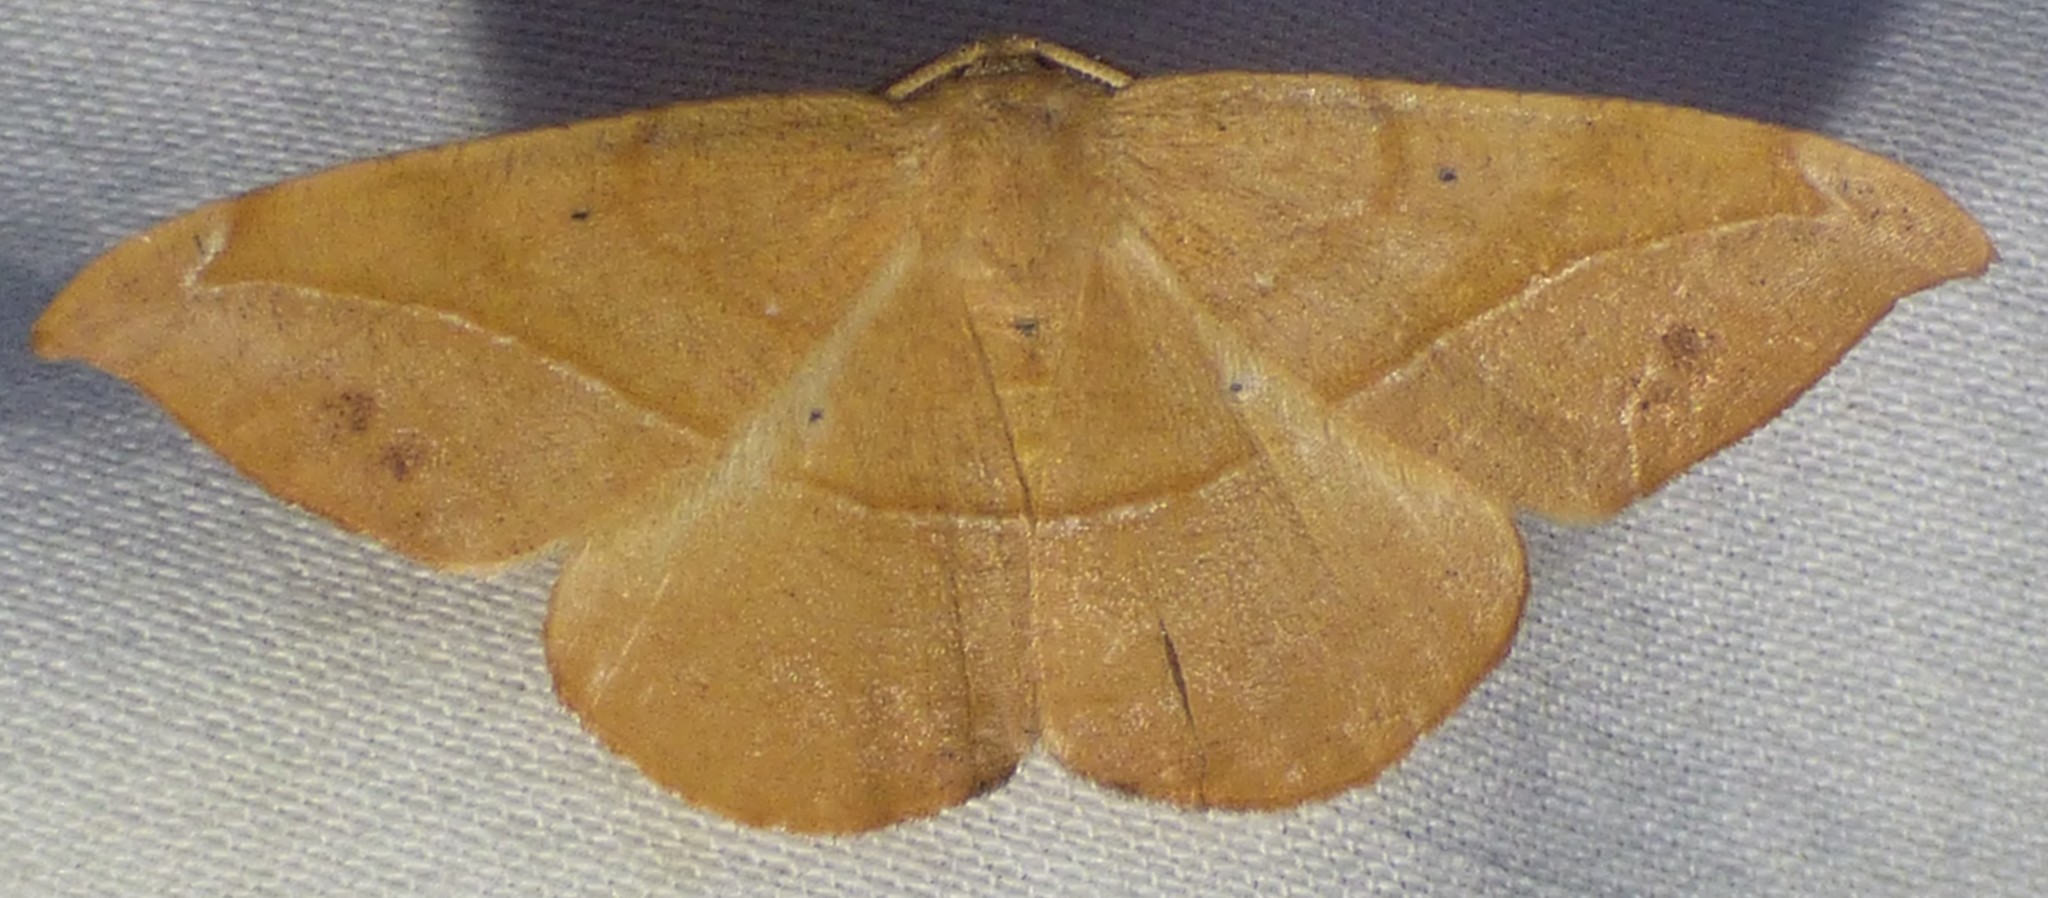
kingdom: Animalia
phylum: Arthropoda
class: Insecta
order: Lepidoptera
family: Geometridae
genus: Patalene
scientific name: Patalene olyzonaria
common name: Juniper geometer moth
